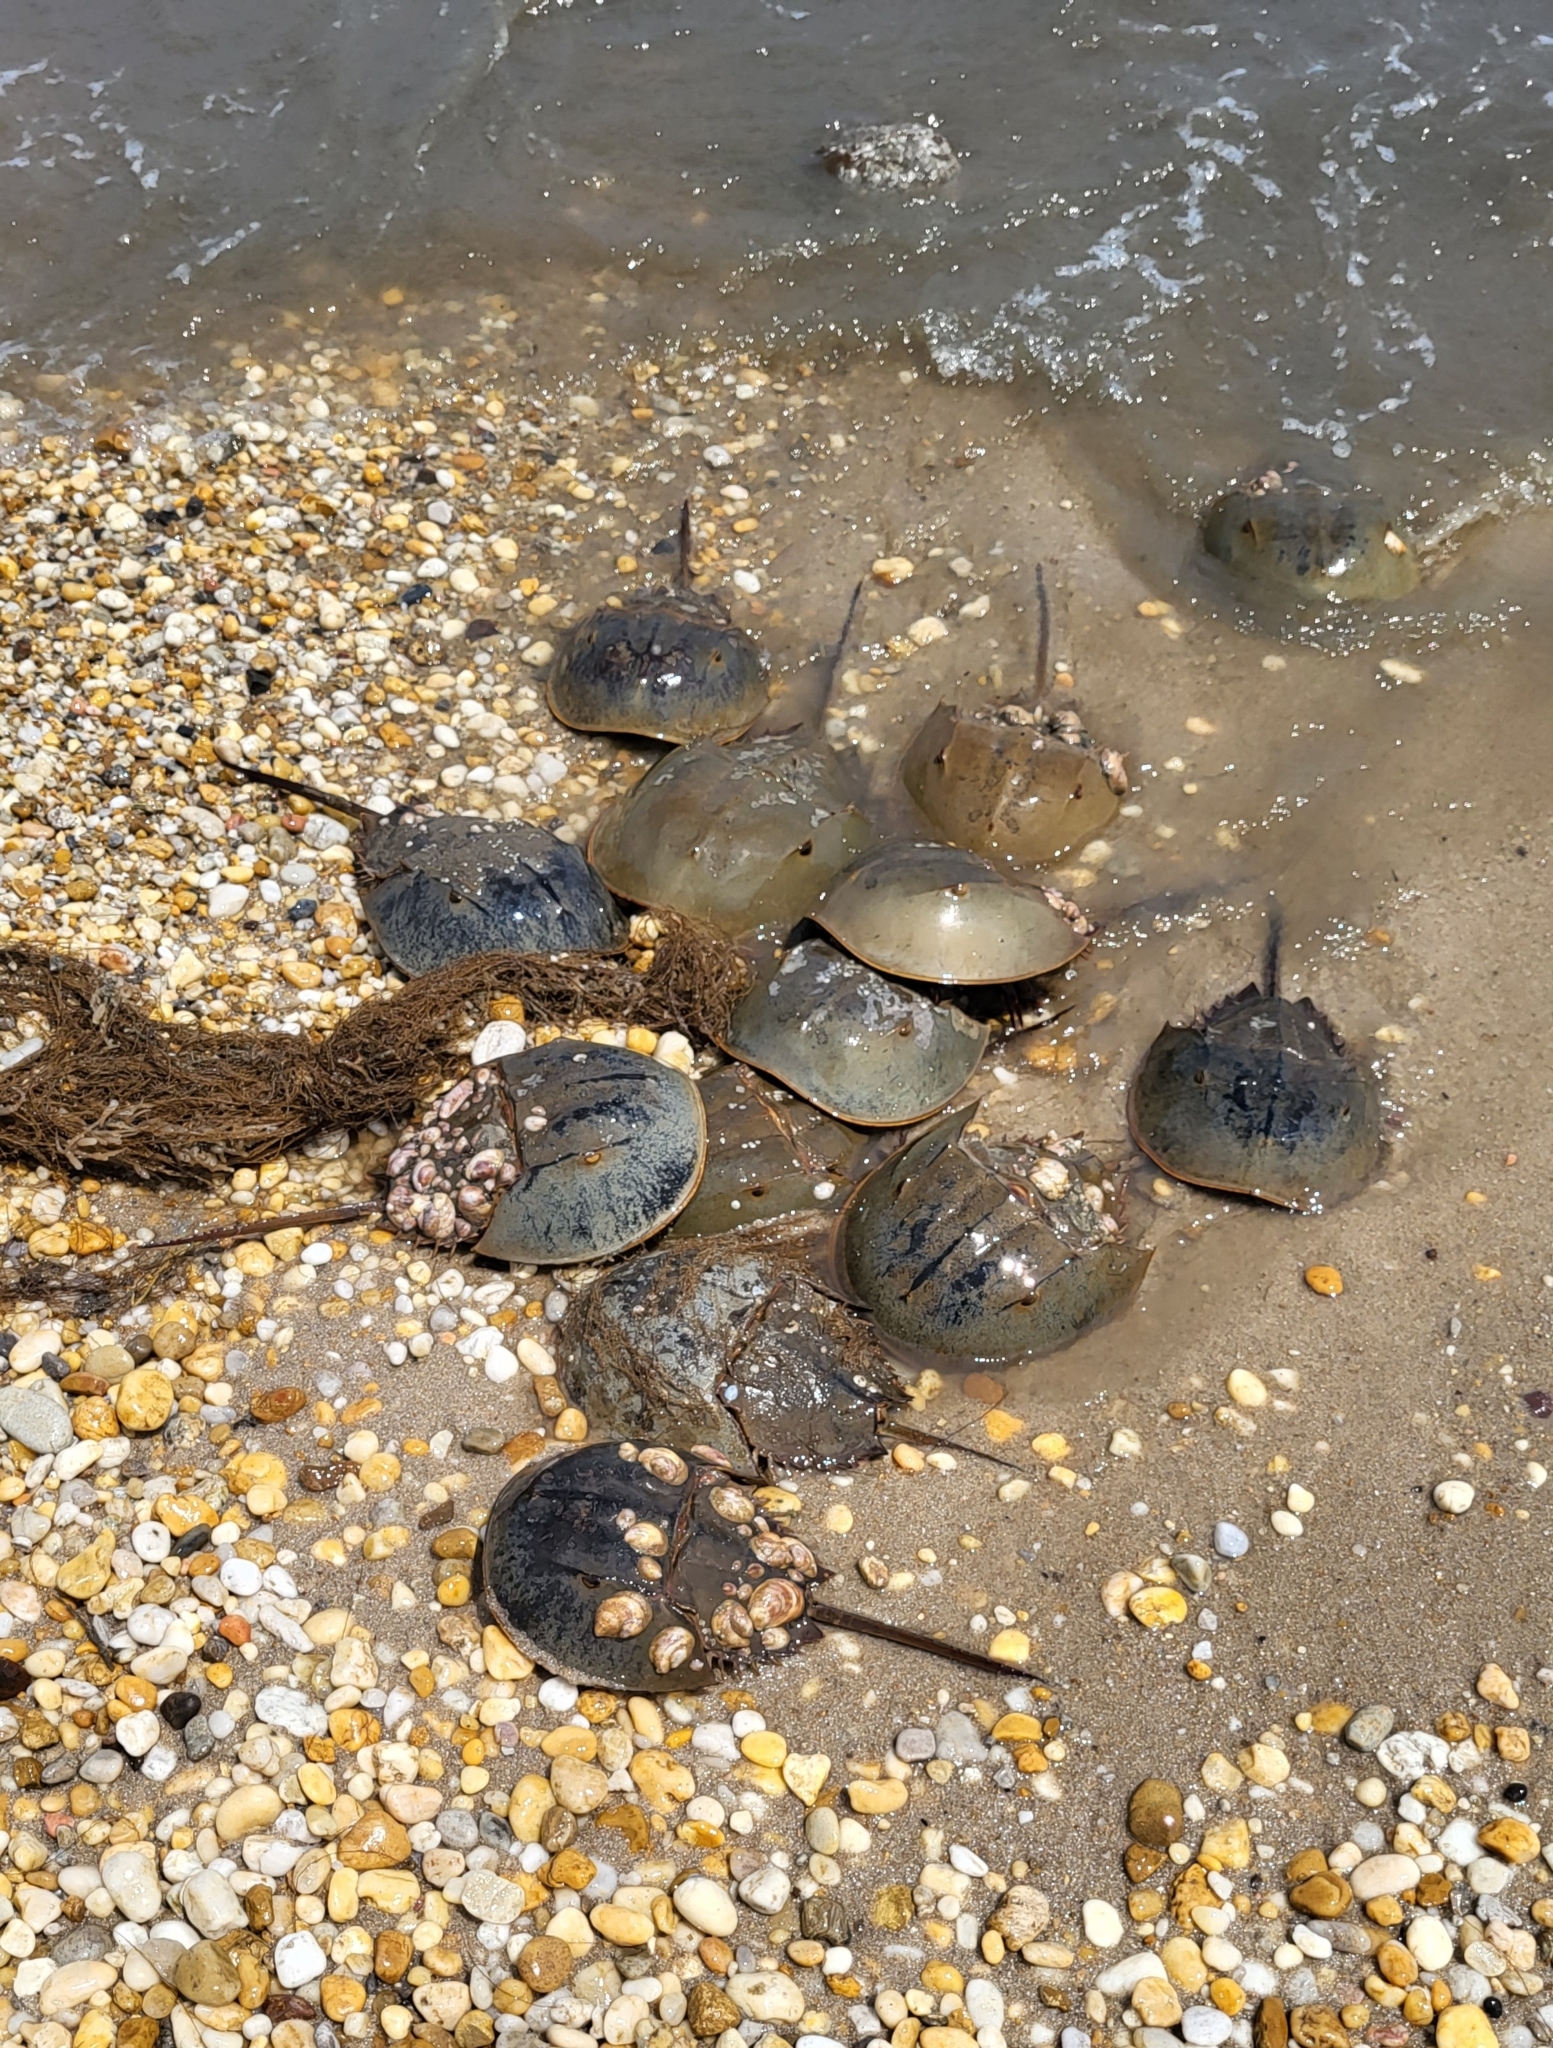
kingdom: Animalia
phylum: Arthropoda
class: Merostomata
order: Xiphosurida
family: Limulidae
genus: Limulus
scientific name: Limulus polyphemus
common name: Horseshoe crab
